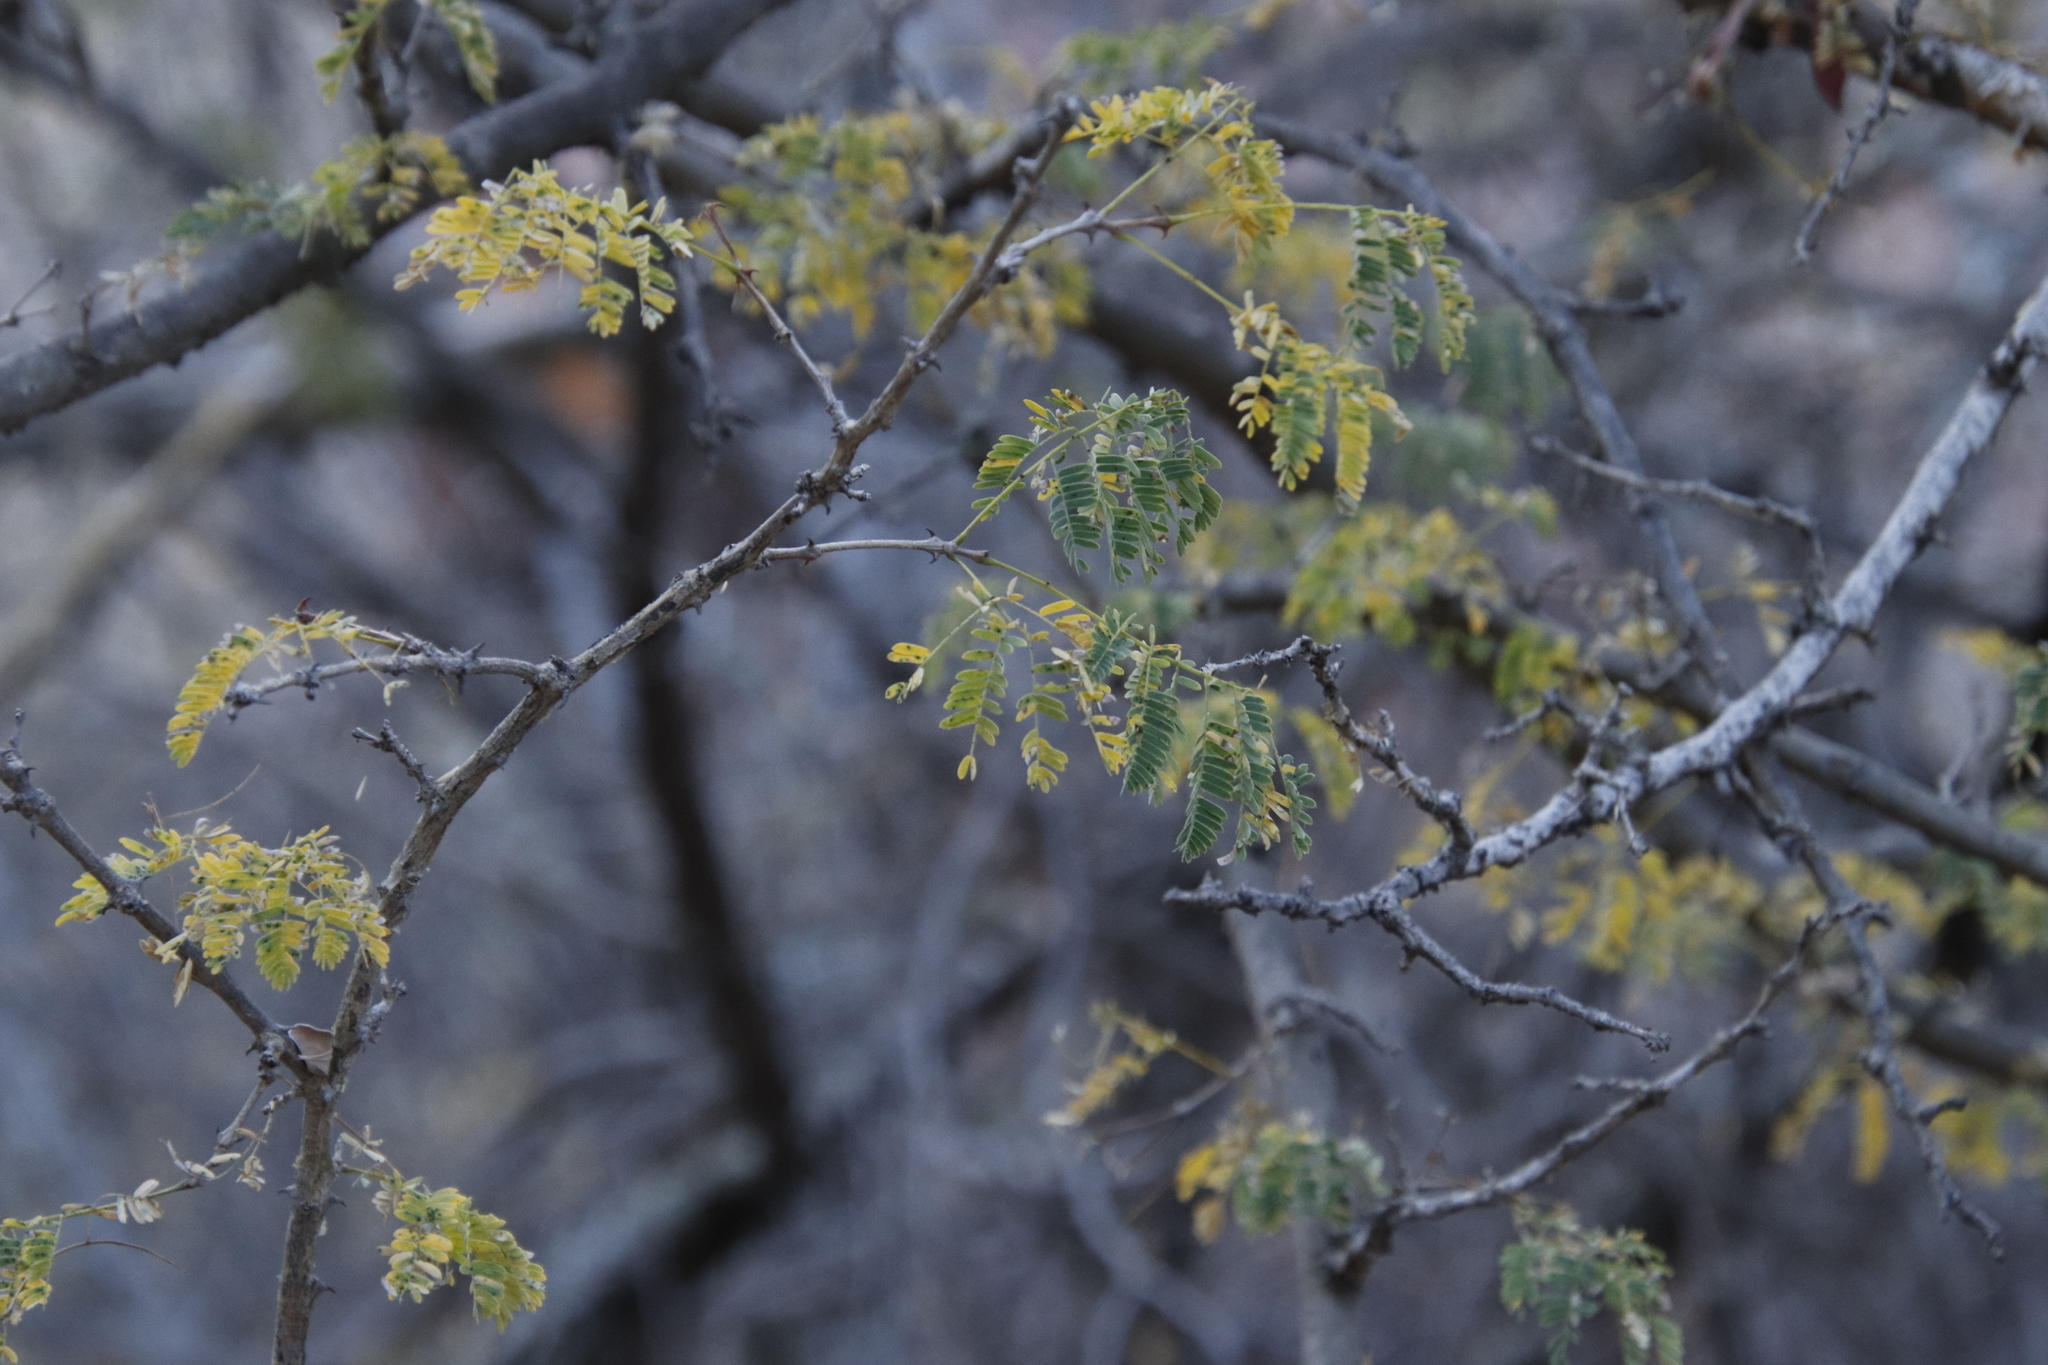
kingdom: Plantae
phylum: Tracheophyta
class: Magnoliopsida
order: Fabales
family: Fabaceae
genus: Senegalia
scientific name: Senegalia erubescens
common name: Bluethorn
